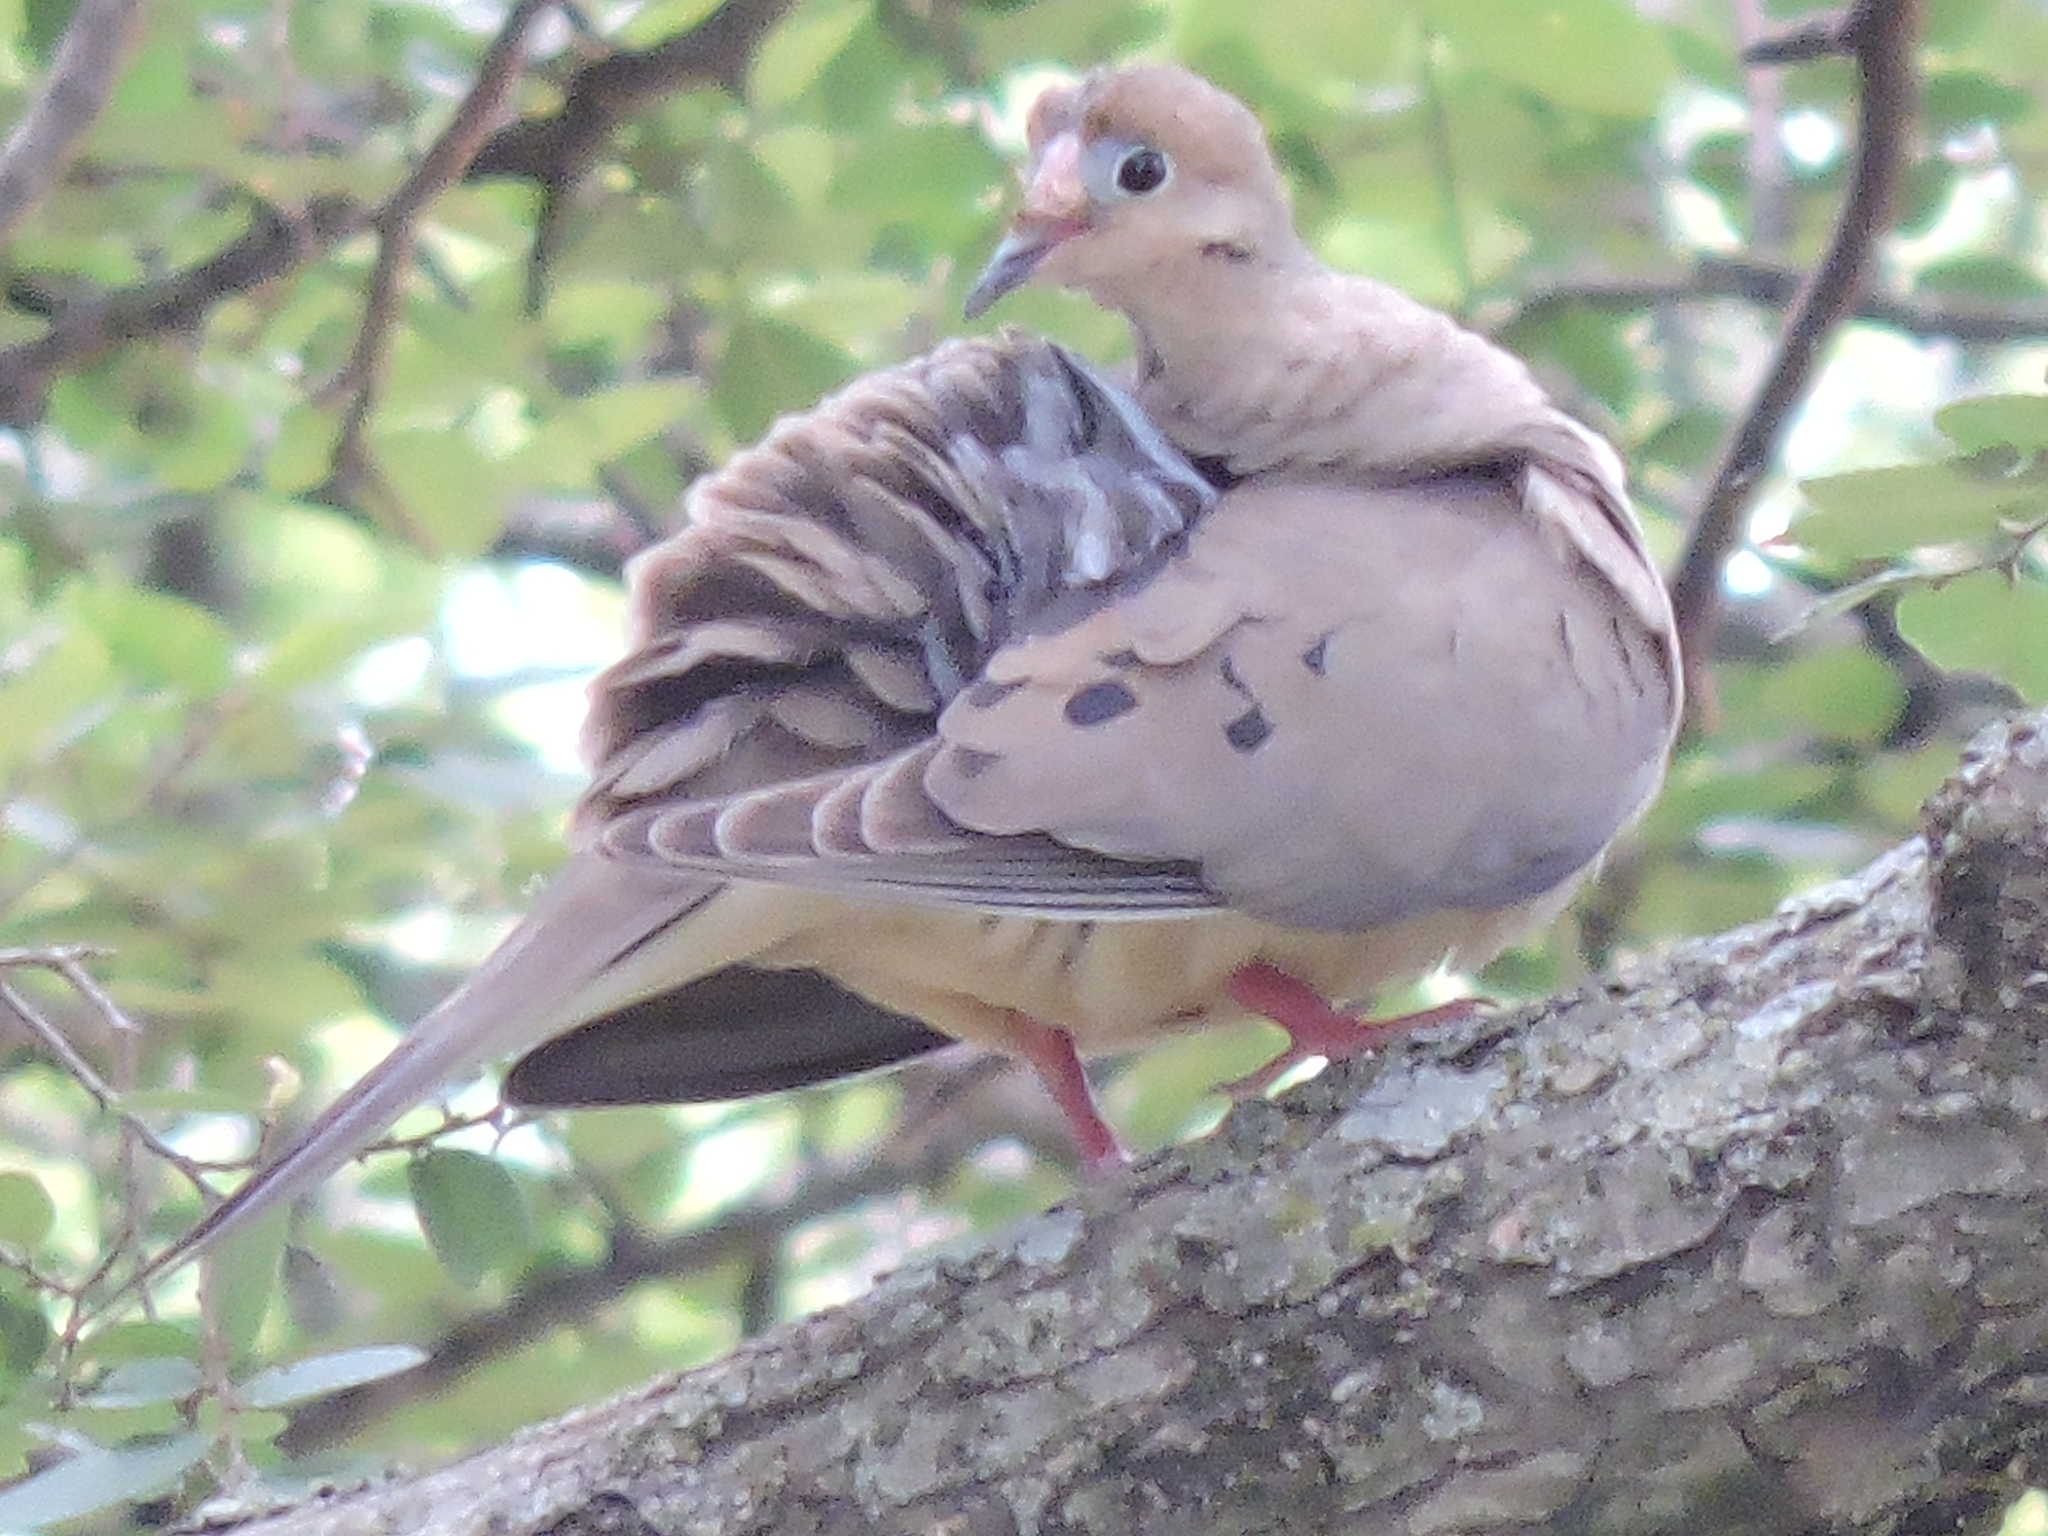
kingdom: Animalia
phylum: Chordata
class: Aves
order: Columbiformes
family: Columbidae
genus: Zenaida
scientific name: Zenaida macroura
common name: Mourning dove
